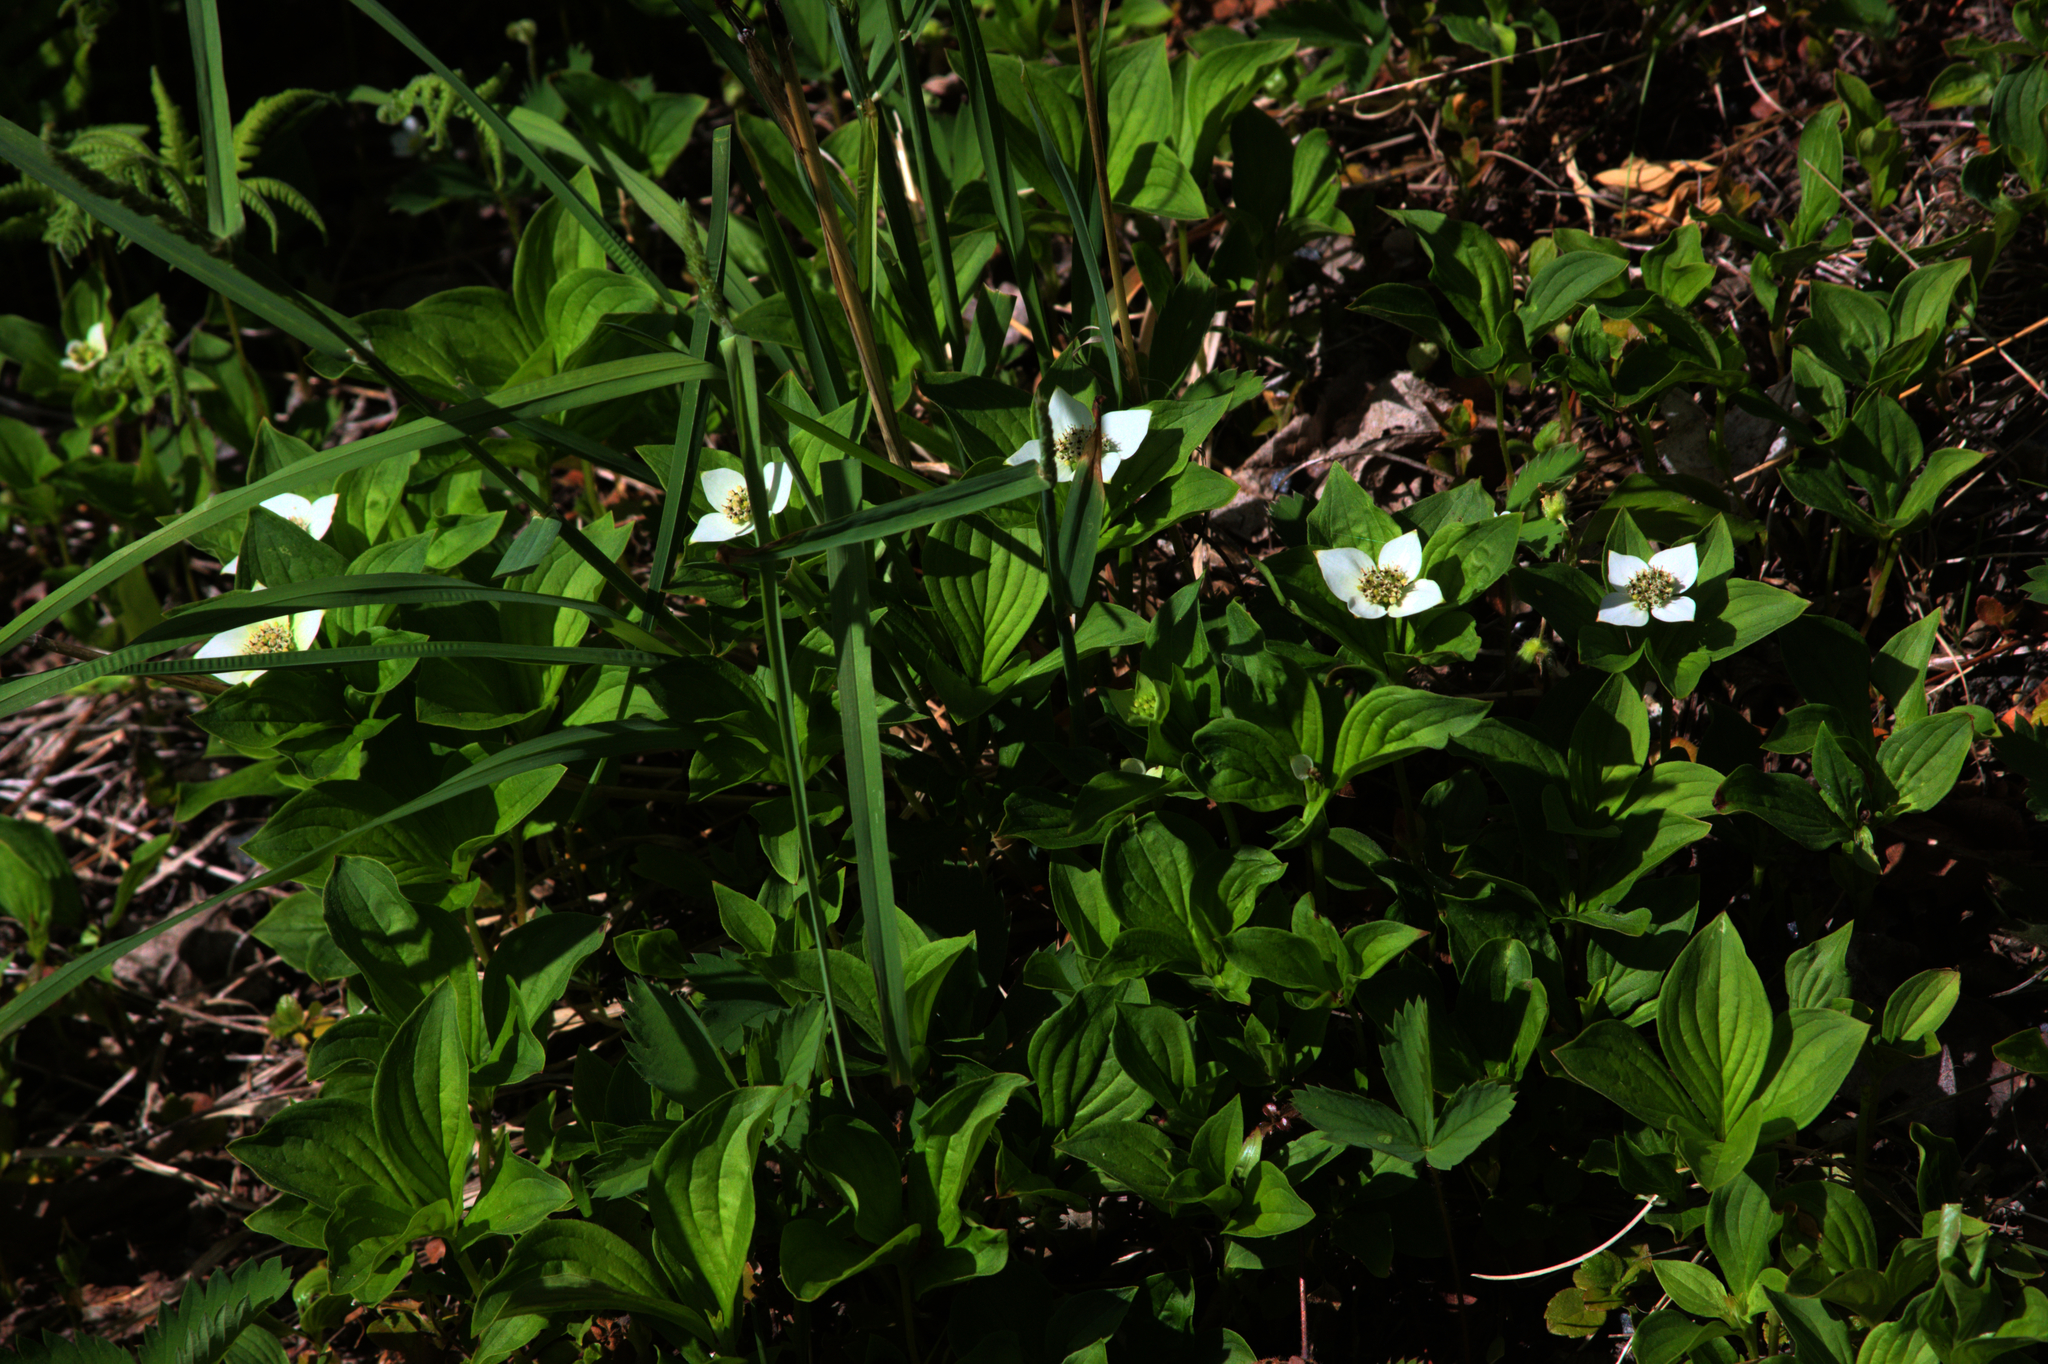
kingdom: Plantae
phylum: Tracheophyta
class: Magnoliopsida
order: Cornales
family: Cornaceae
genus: Cornus
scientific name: Cornus canadensis
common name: Creeping dogwood
